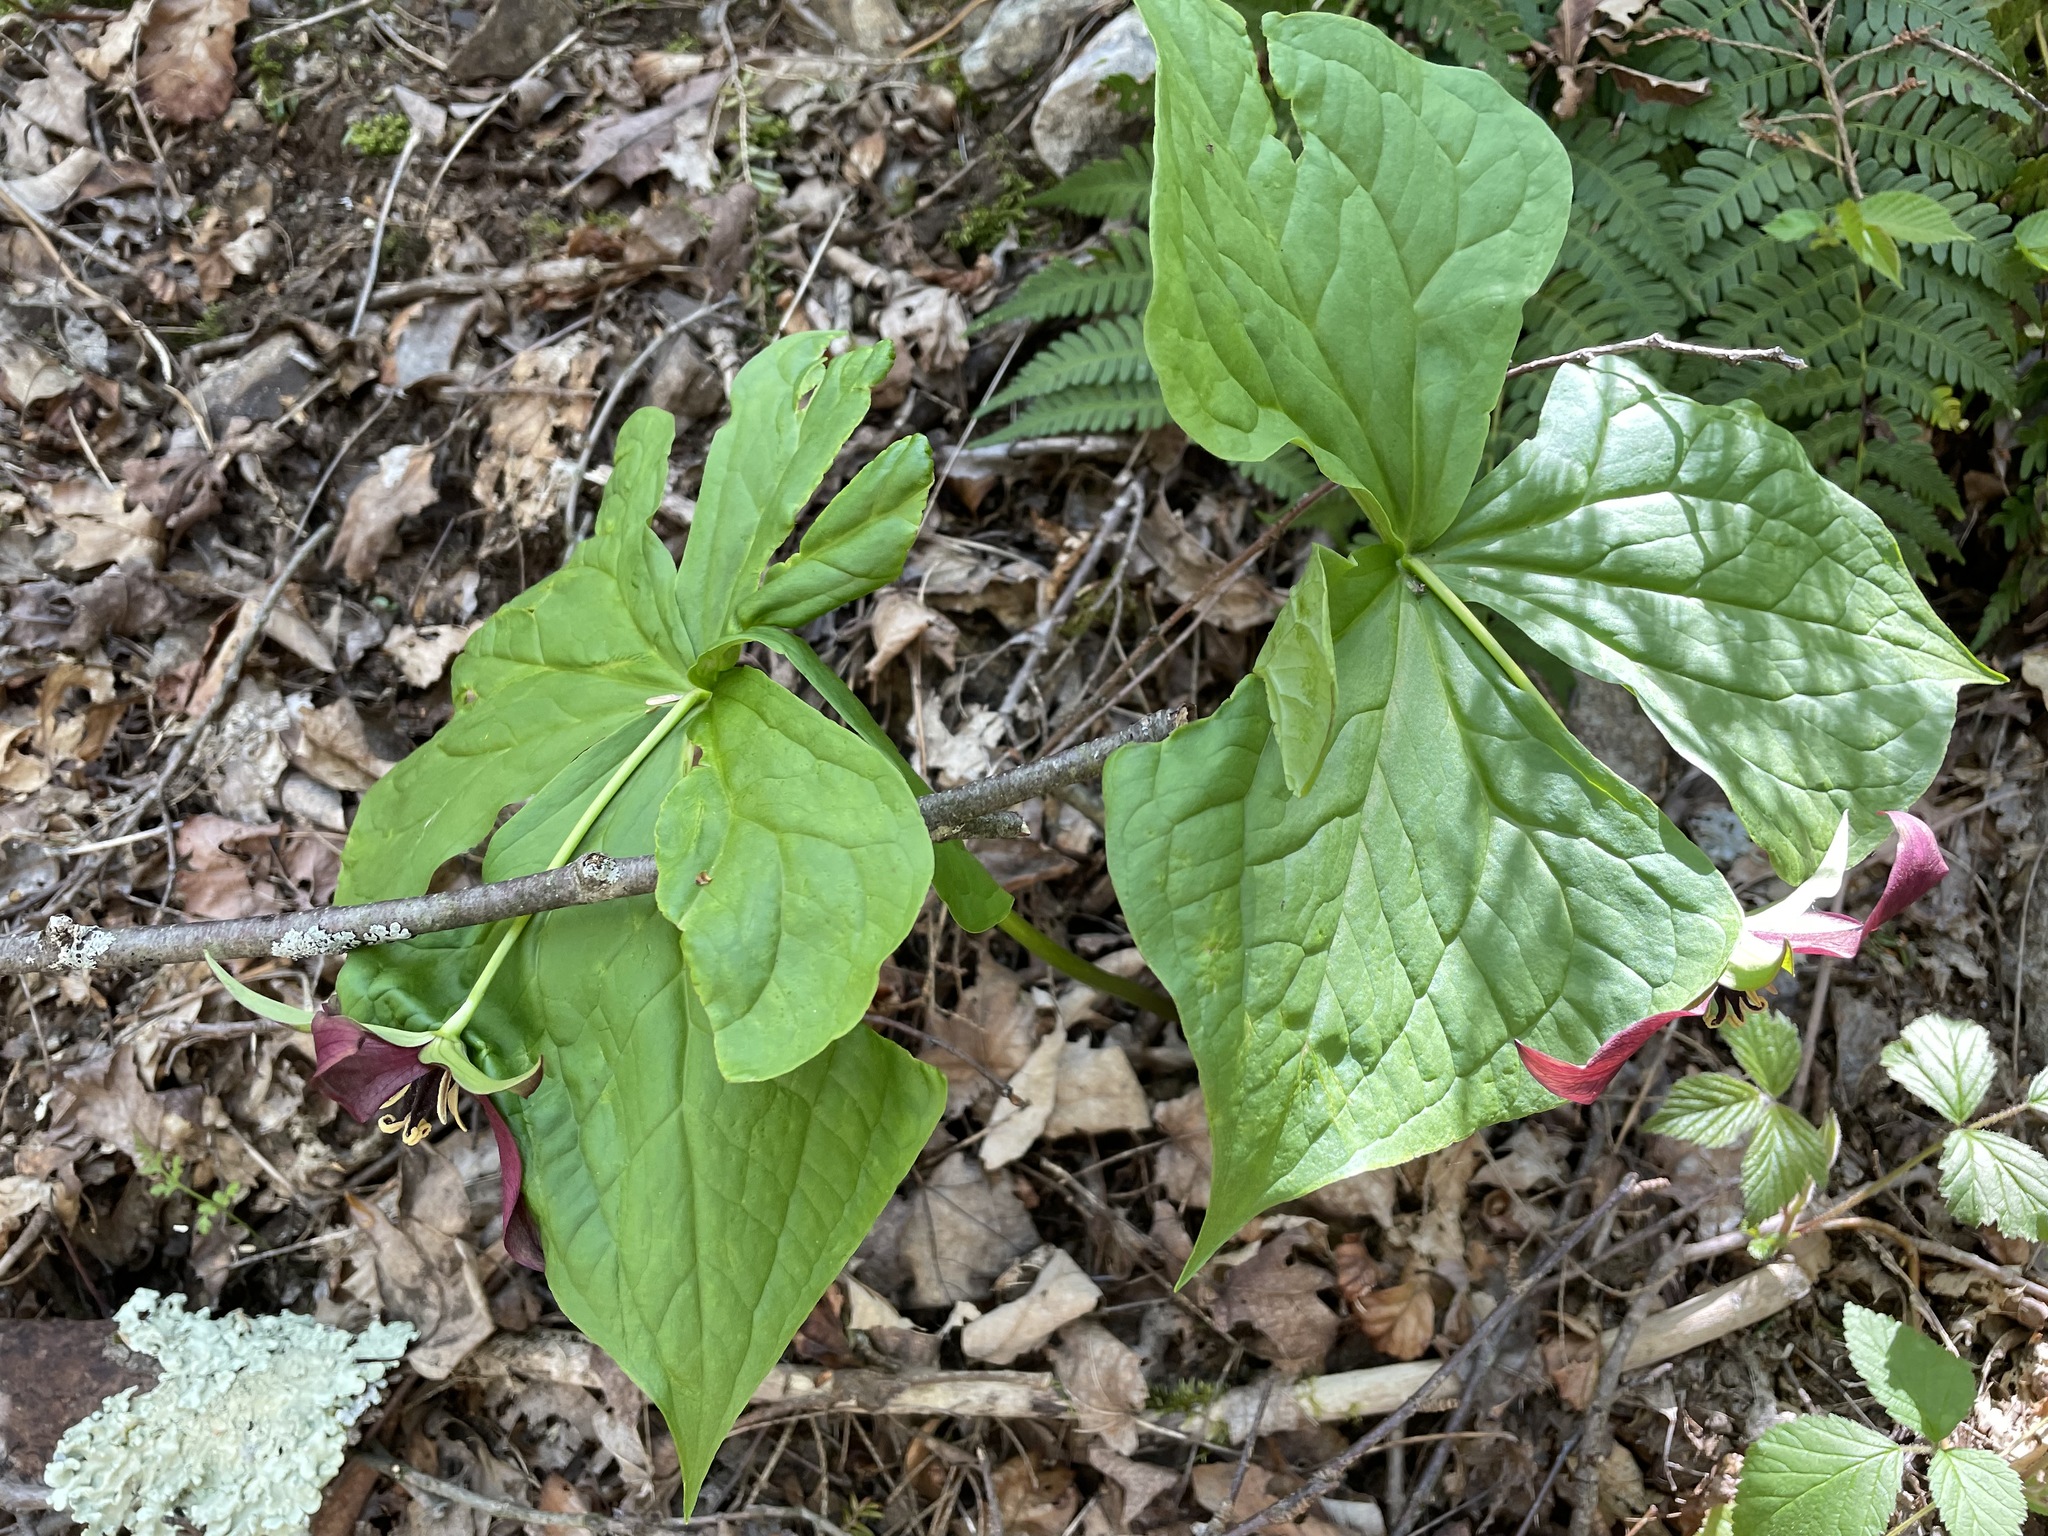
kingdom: Plantae
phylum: Tracheophyta
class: Liliopsida
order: Liliales
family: Melanthiaceae
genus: Trillium
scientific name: Trillium erectum
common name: Purple trillium
